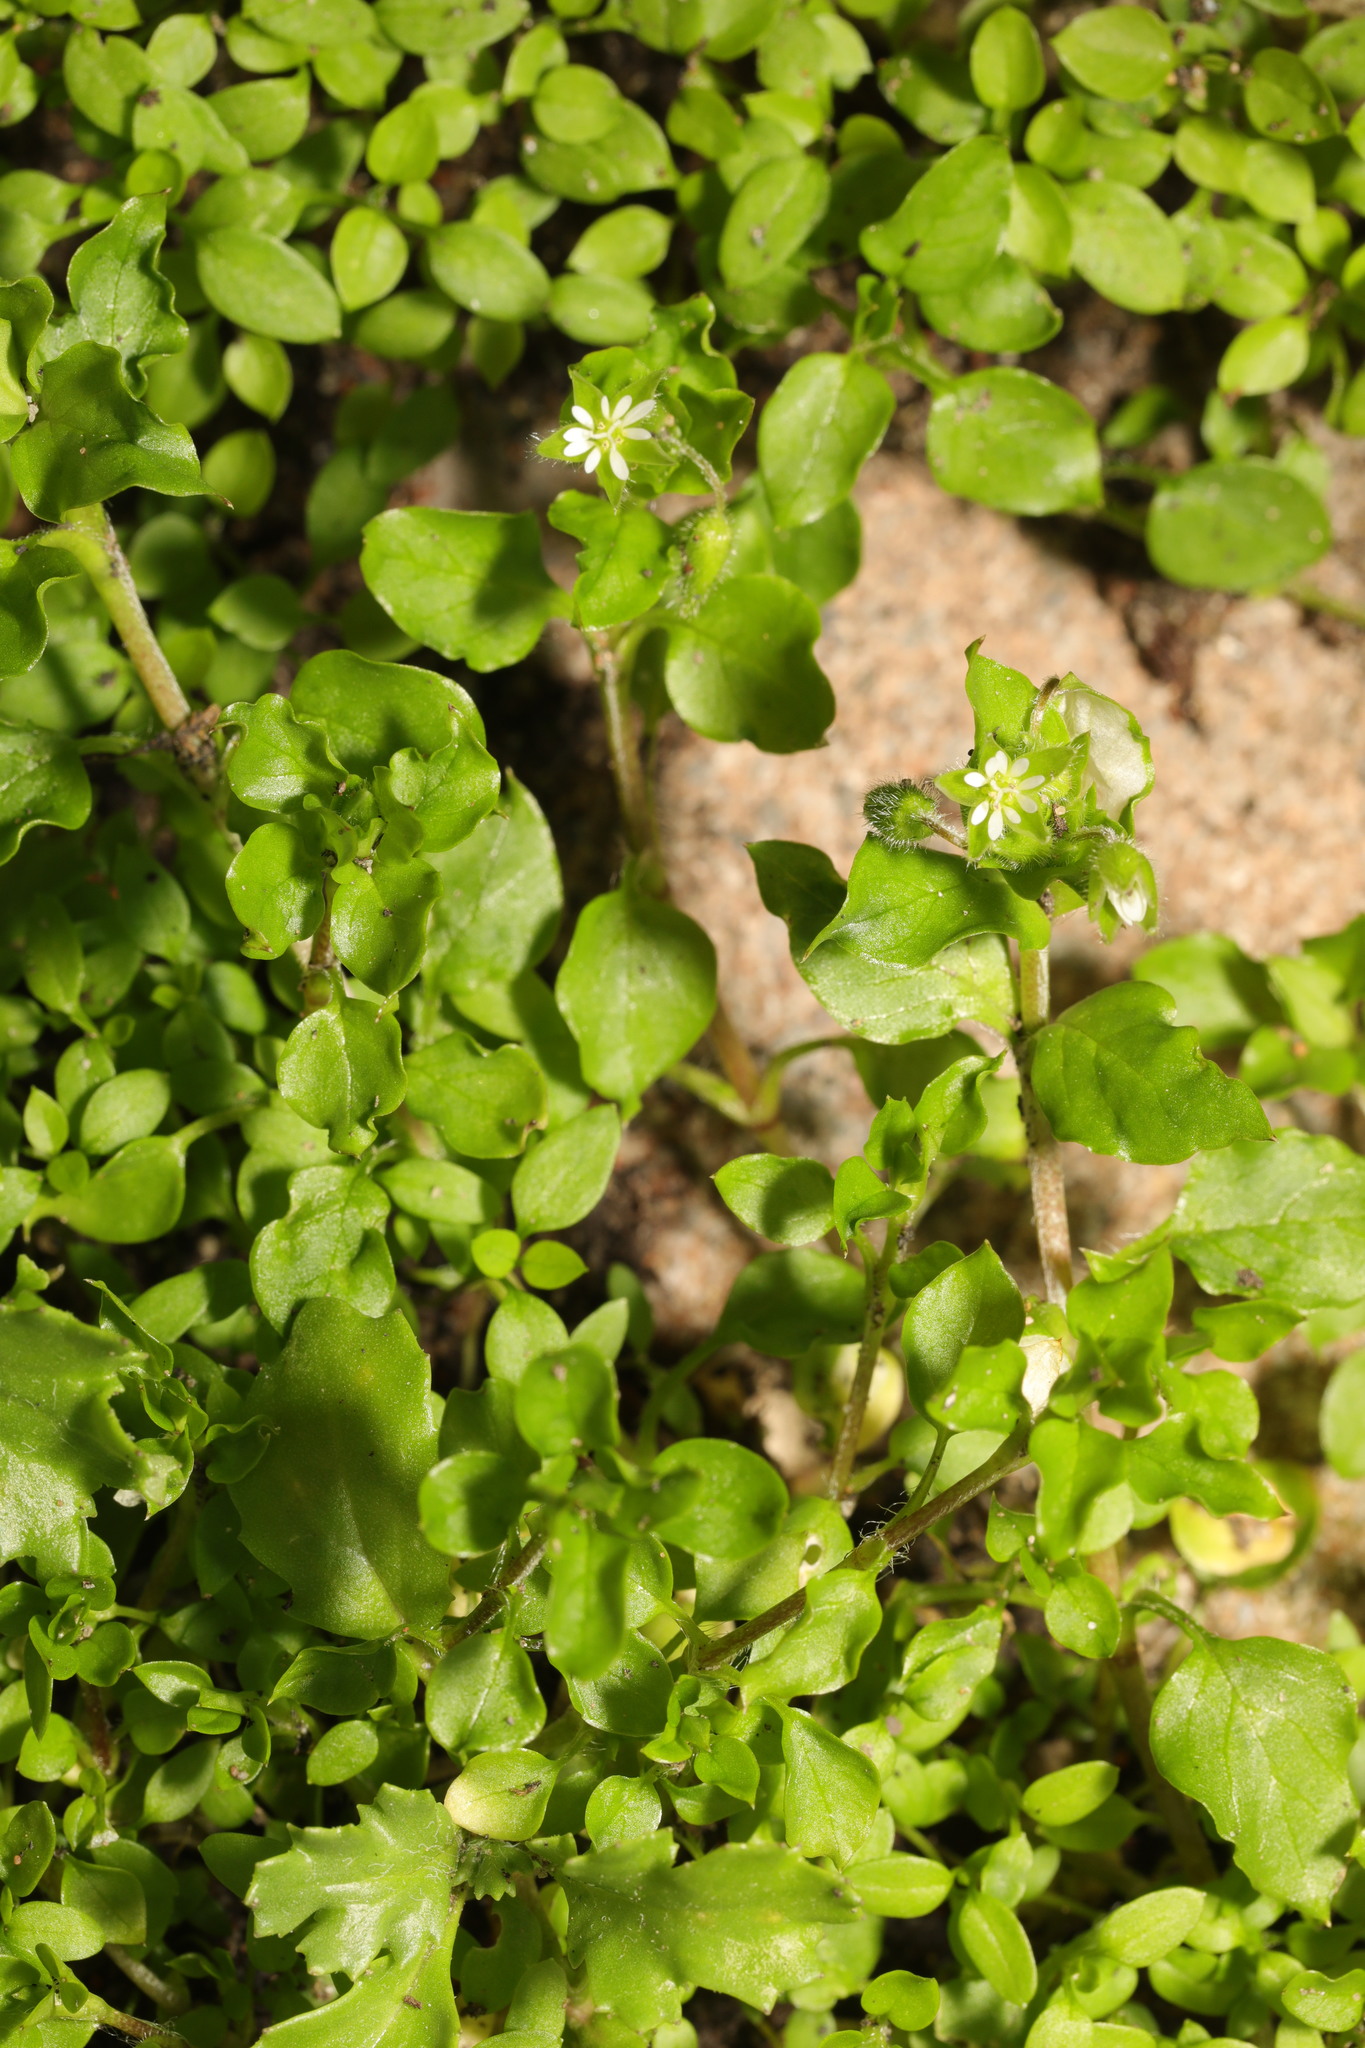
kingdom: Plantae
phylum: Tracheophyta
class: Magnoliopsida
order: Caryophyllales
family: Caryophyllaceae
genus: Stellaria
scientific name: Stellaria media
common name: Common chickweed
